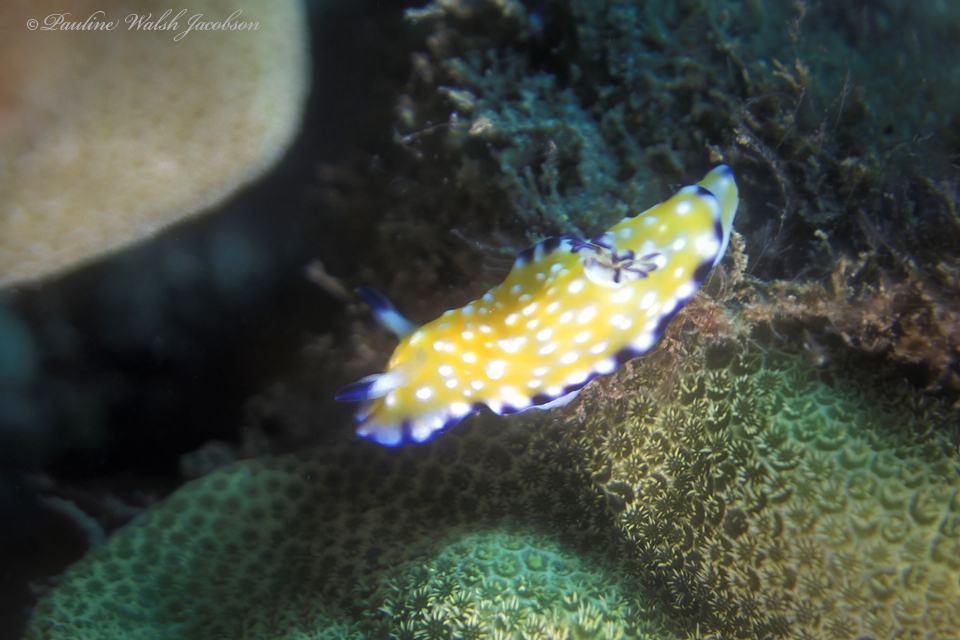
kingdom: Animalia
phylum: Mollusca
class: Gastropoda
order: Nudibranchia
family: Chromodorididae
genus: Goniobranchus
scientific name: Goniobranchus vibratus
